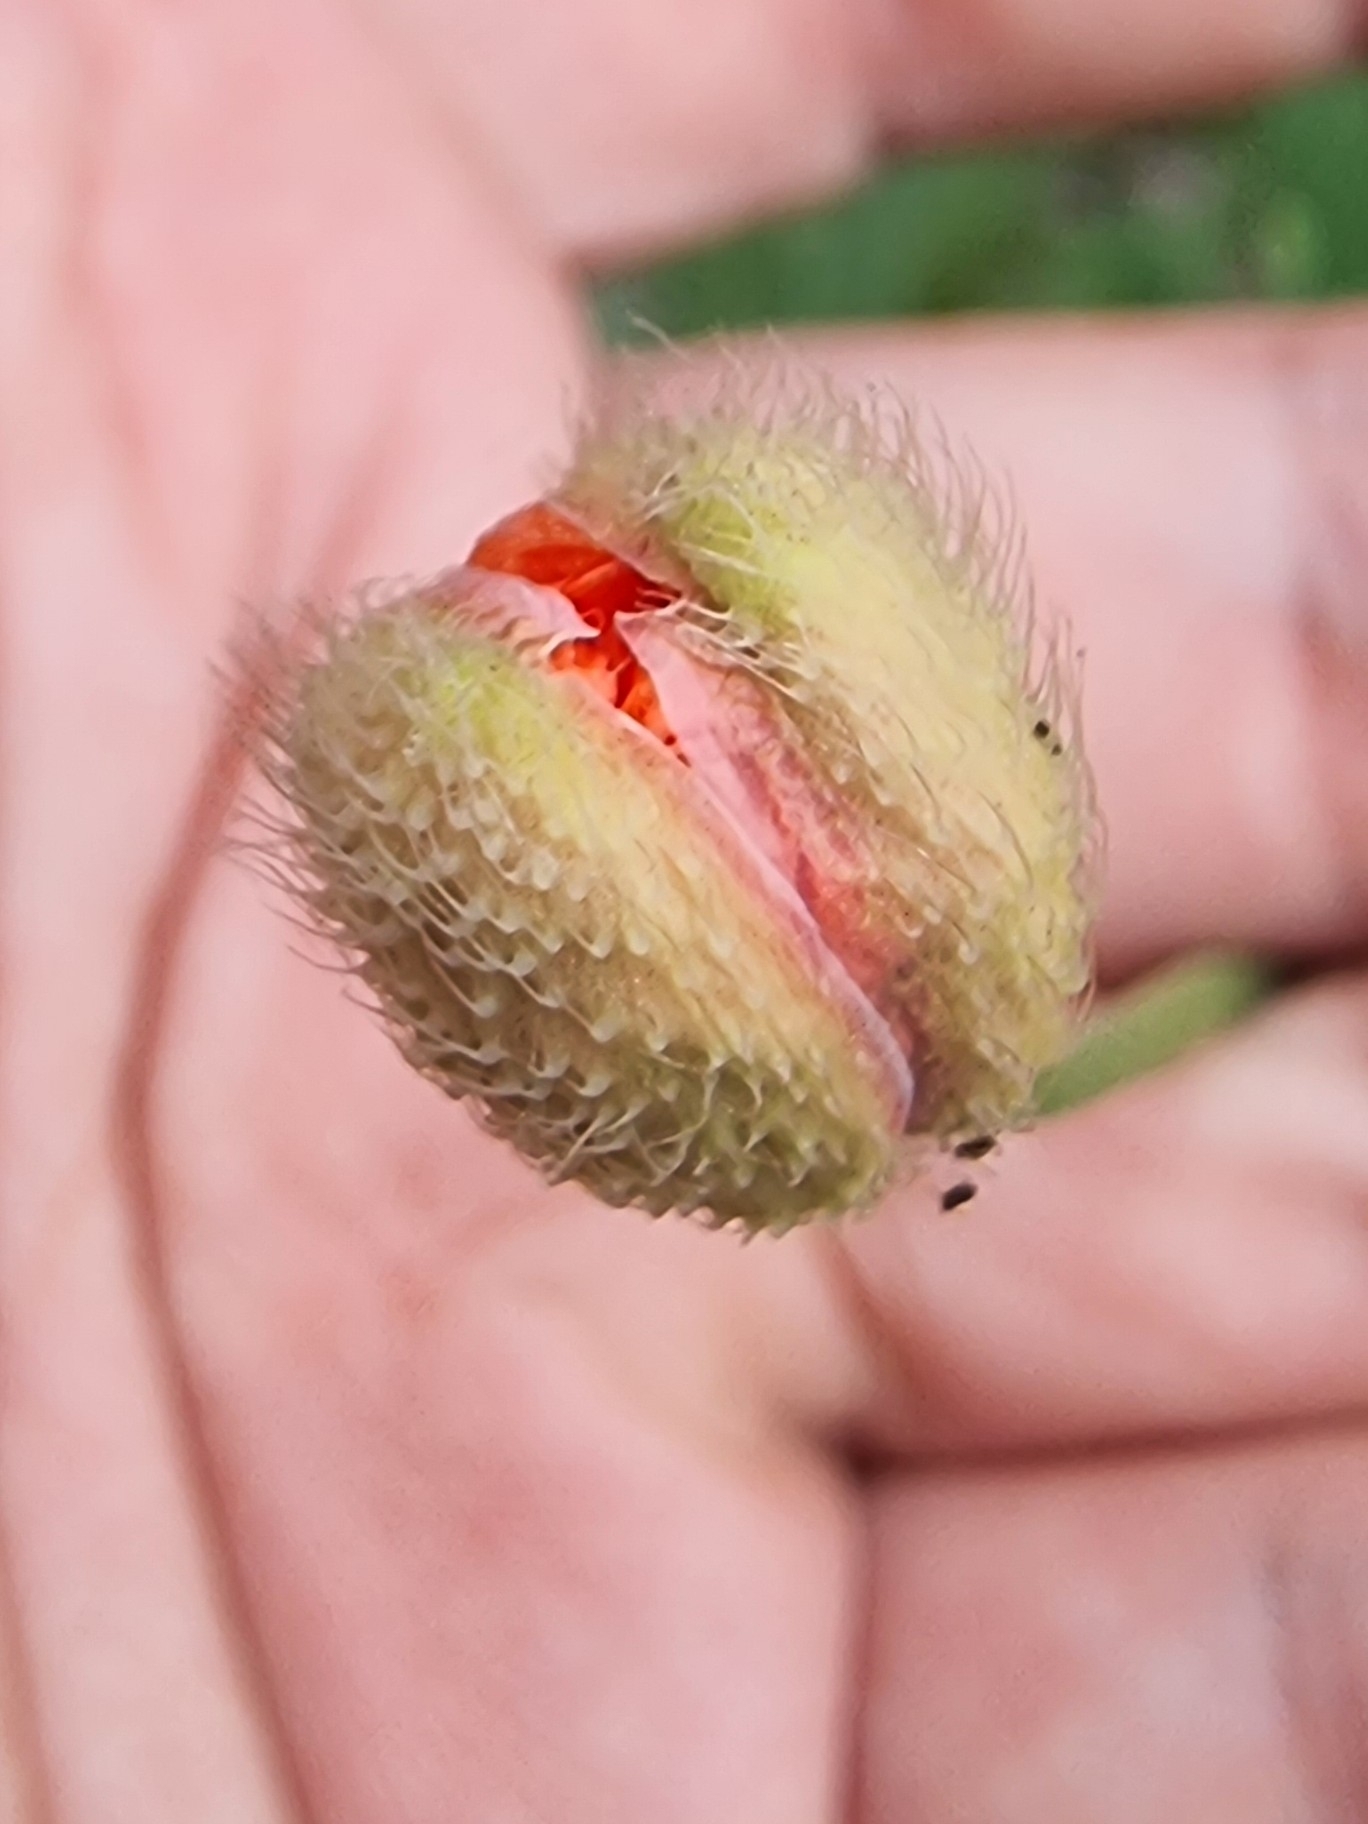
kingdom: Plantae
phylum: Tracheophyta
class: Magnoliopsida
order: Ranunculales
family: Papaveraceae
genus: Papaver
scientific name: Papaver dubium
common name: Long-headed poppy
